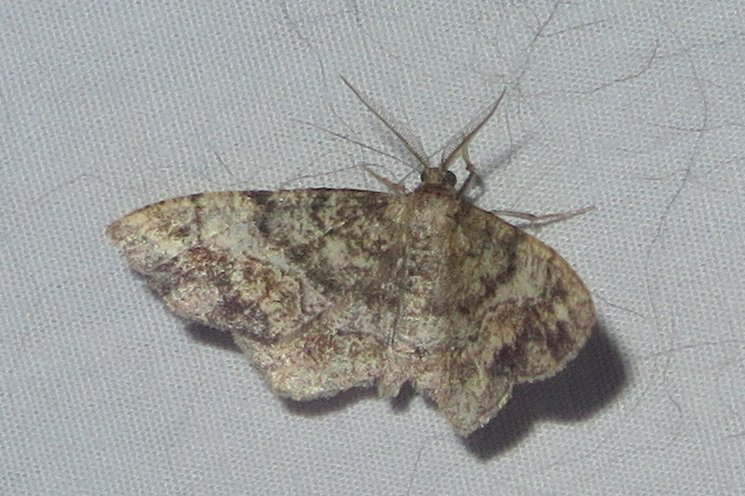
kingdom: Animalia
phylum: Arthropoda
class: Insecta
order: Lepidoptera
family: Geometridae
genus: Hypagyrtis
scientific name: Hypagyrtis unipunctata
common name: One-spotted variant
